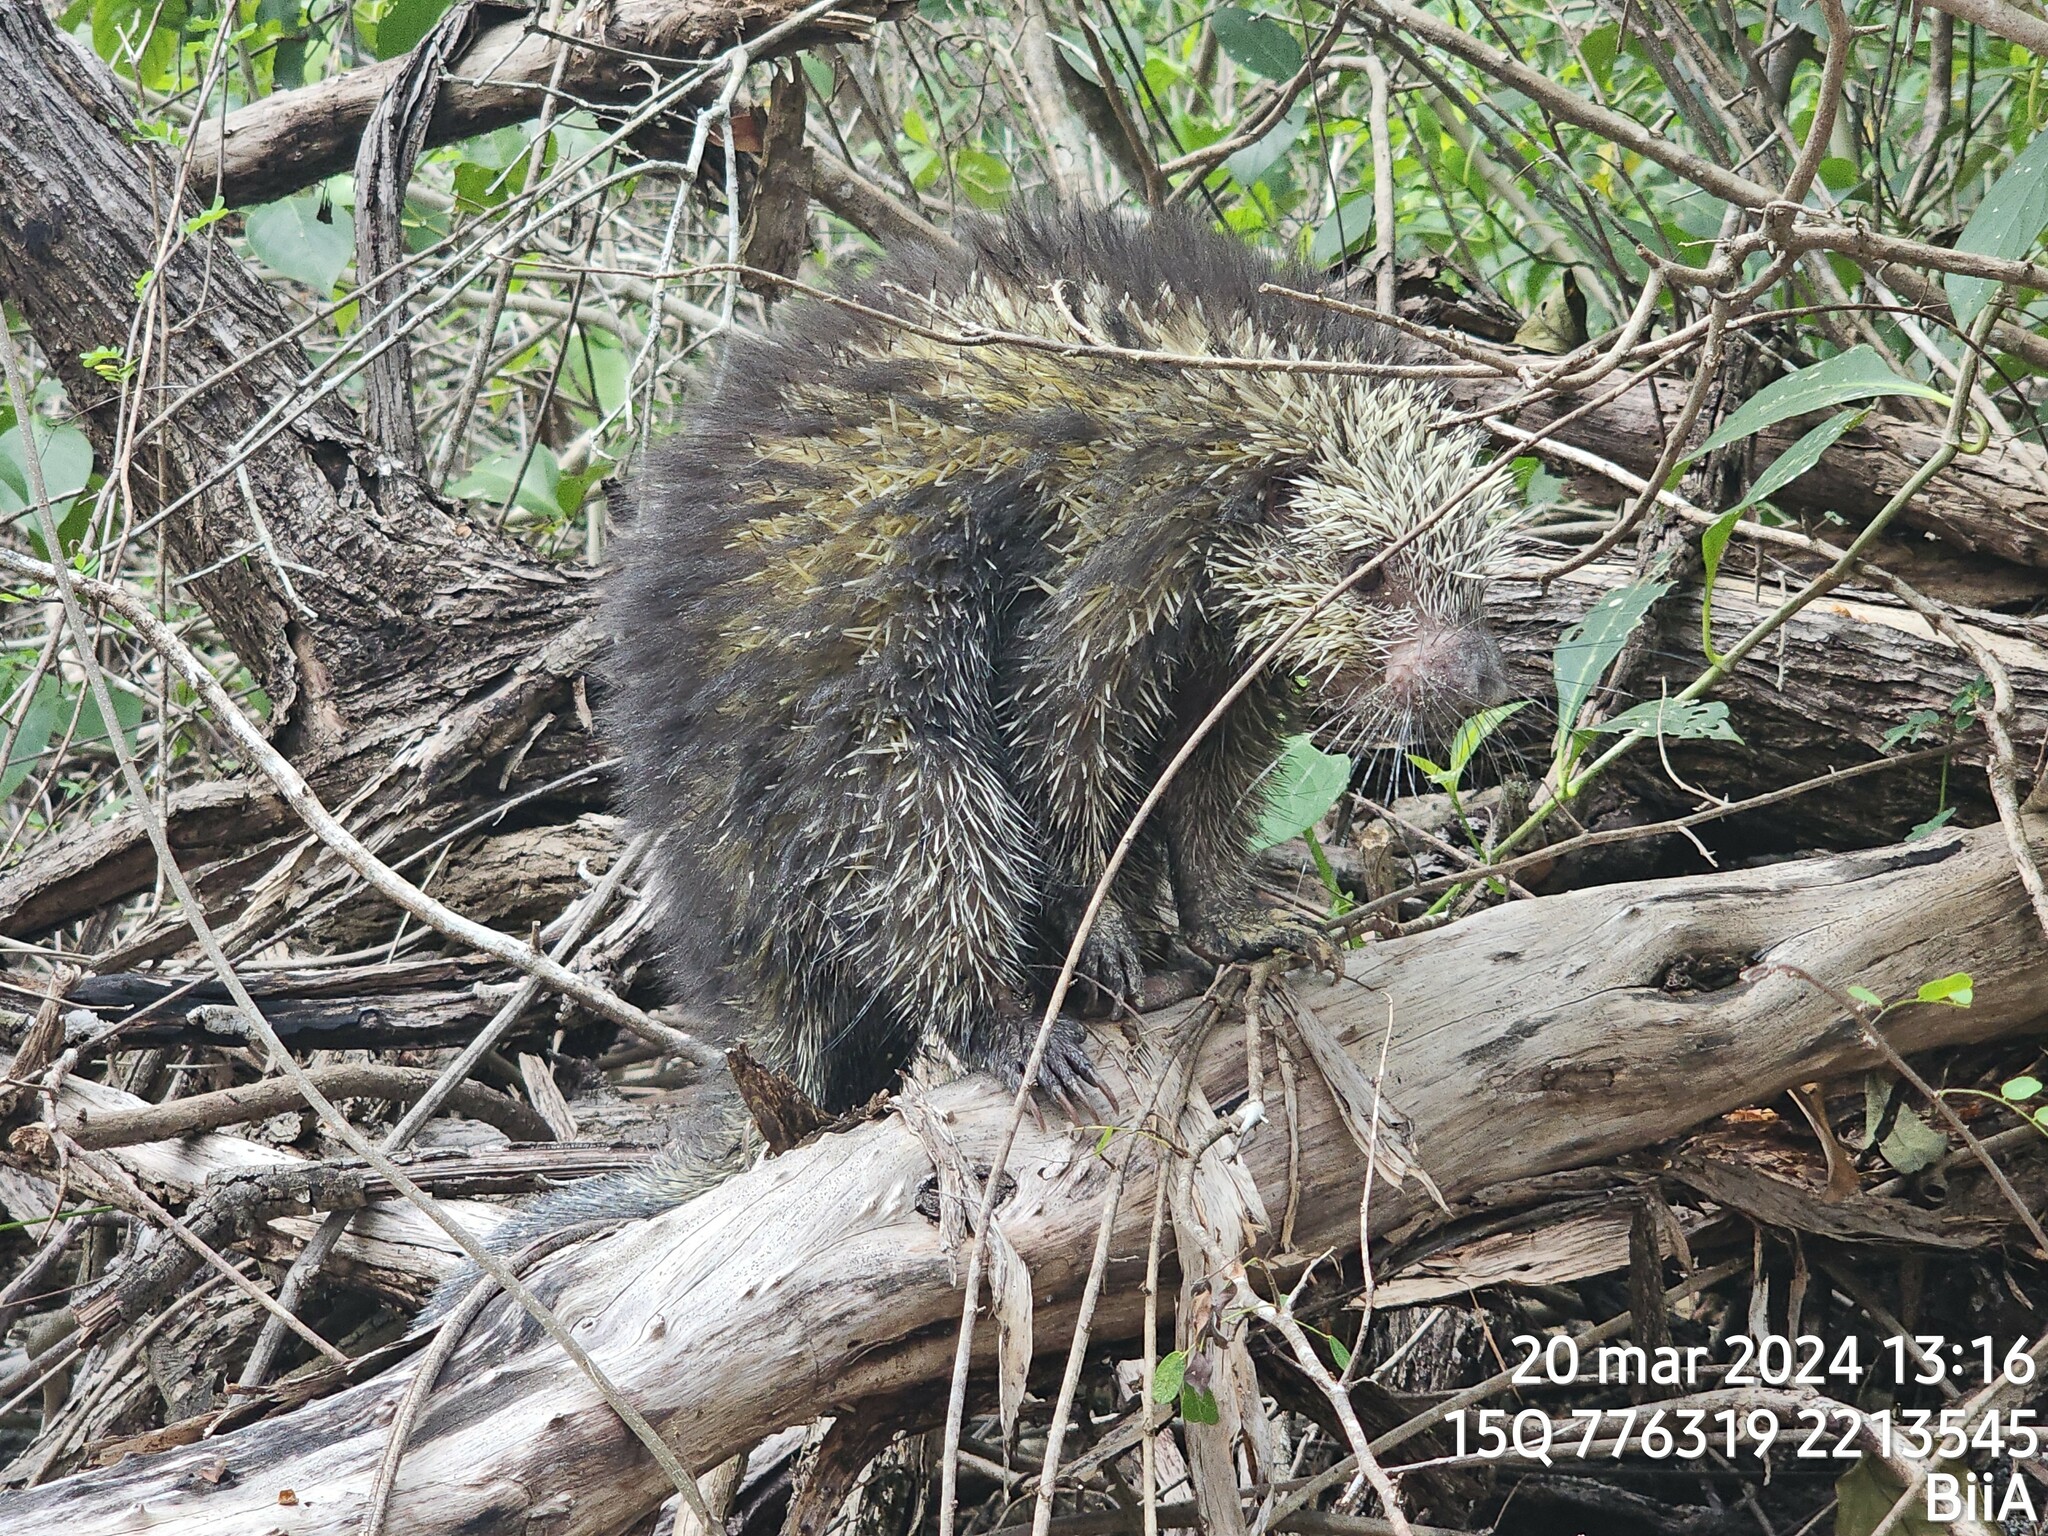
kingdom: Animalia
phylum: Chordata
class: Mammalia
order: Rodentia
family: Erethizontidae
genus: Sphiggurus
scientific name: Sphiggurus mexicanus
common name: Mexican hairy dwarf porcupine
